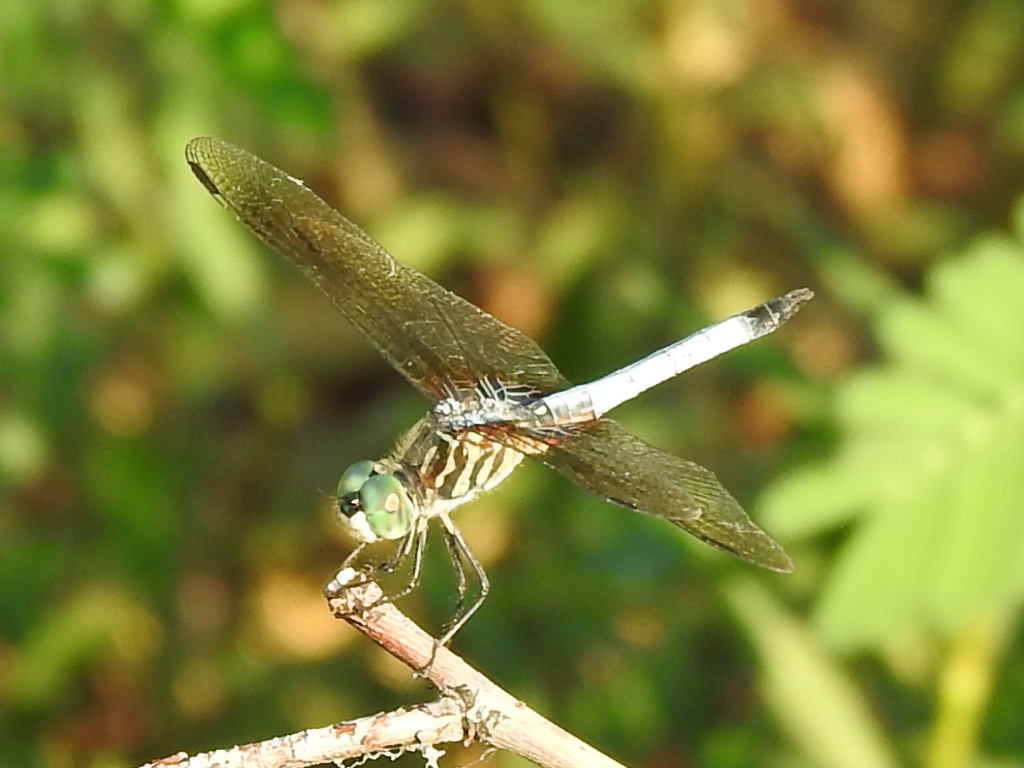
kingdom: Animalia
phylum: Arthropoda
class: Insecta
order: Odonata
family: Libellulidae
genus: Pachydiplax
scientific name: Pachydiplax longipennis
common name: Blue dasher
